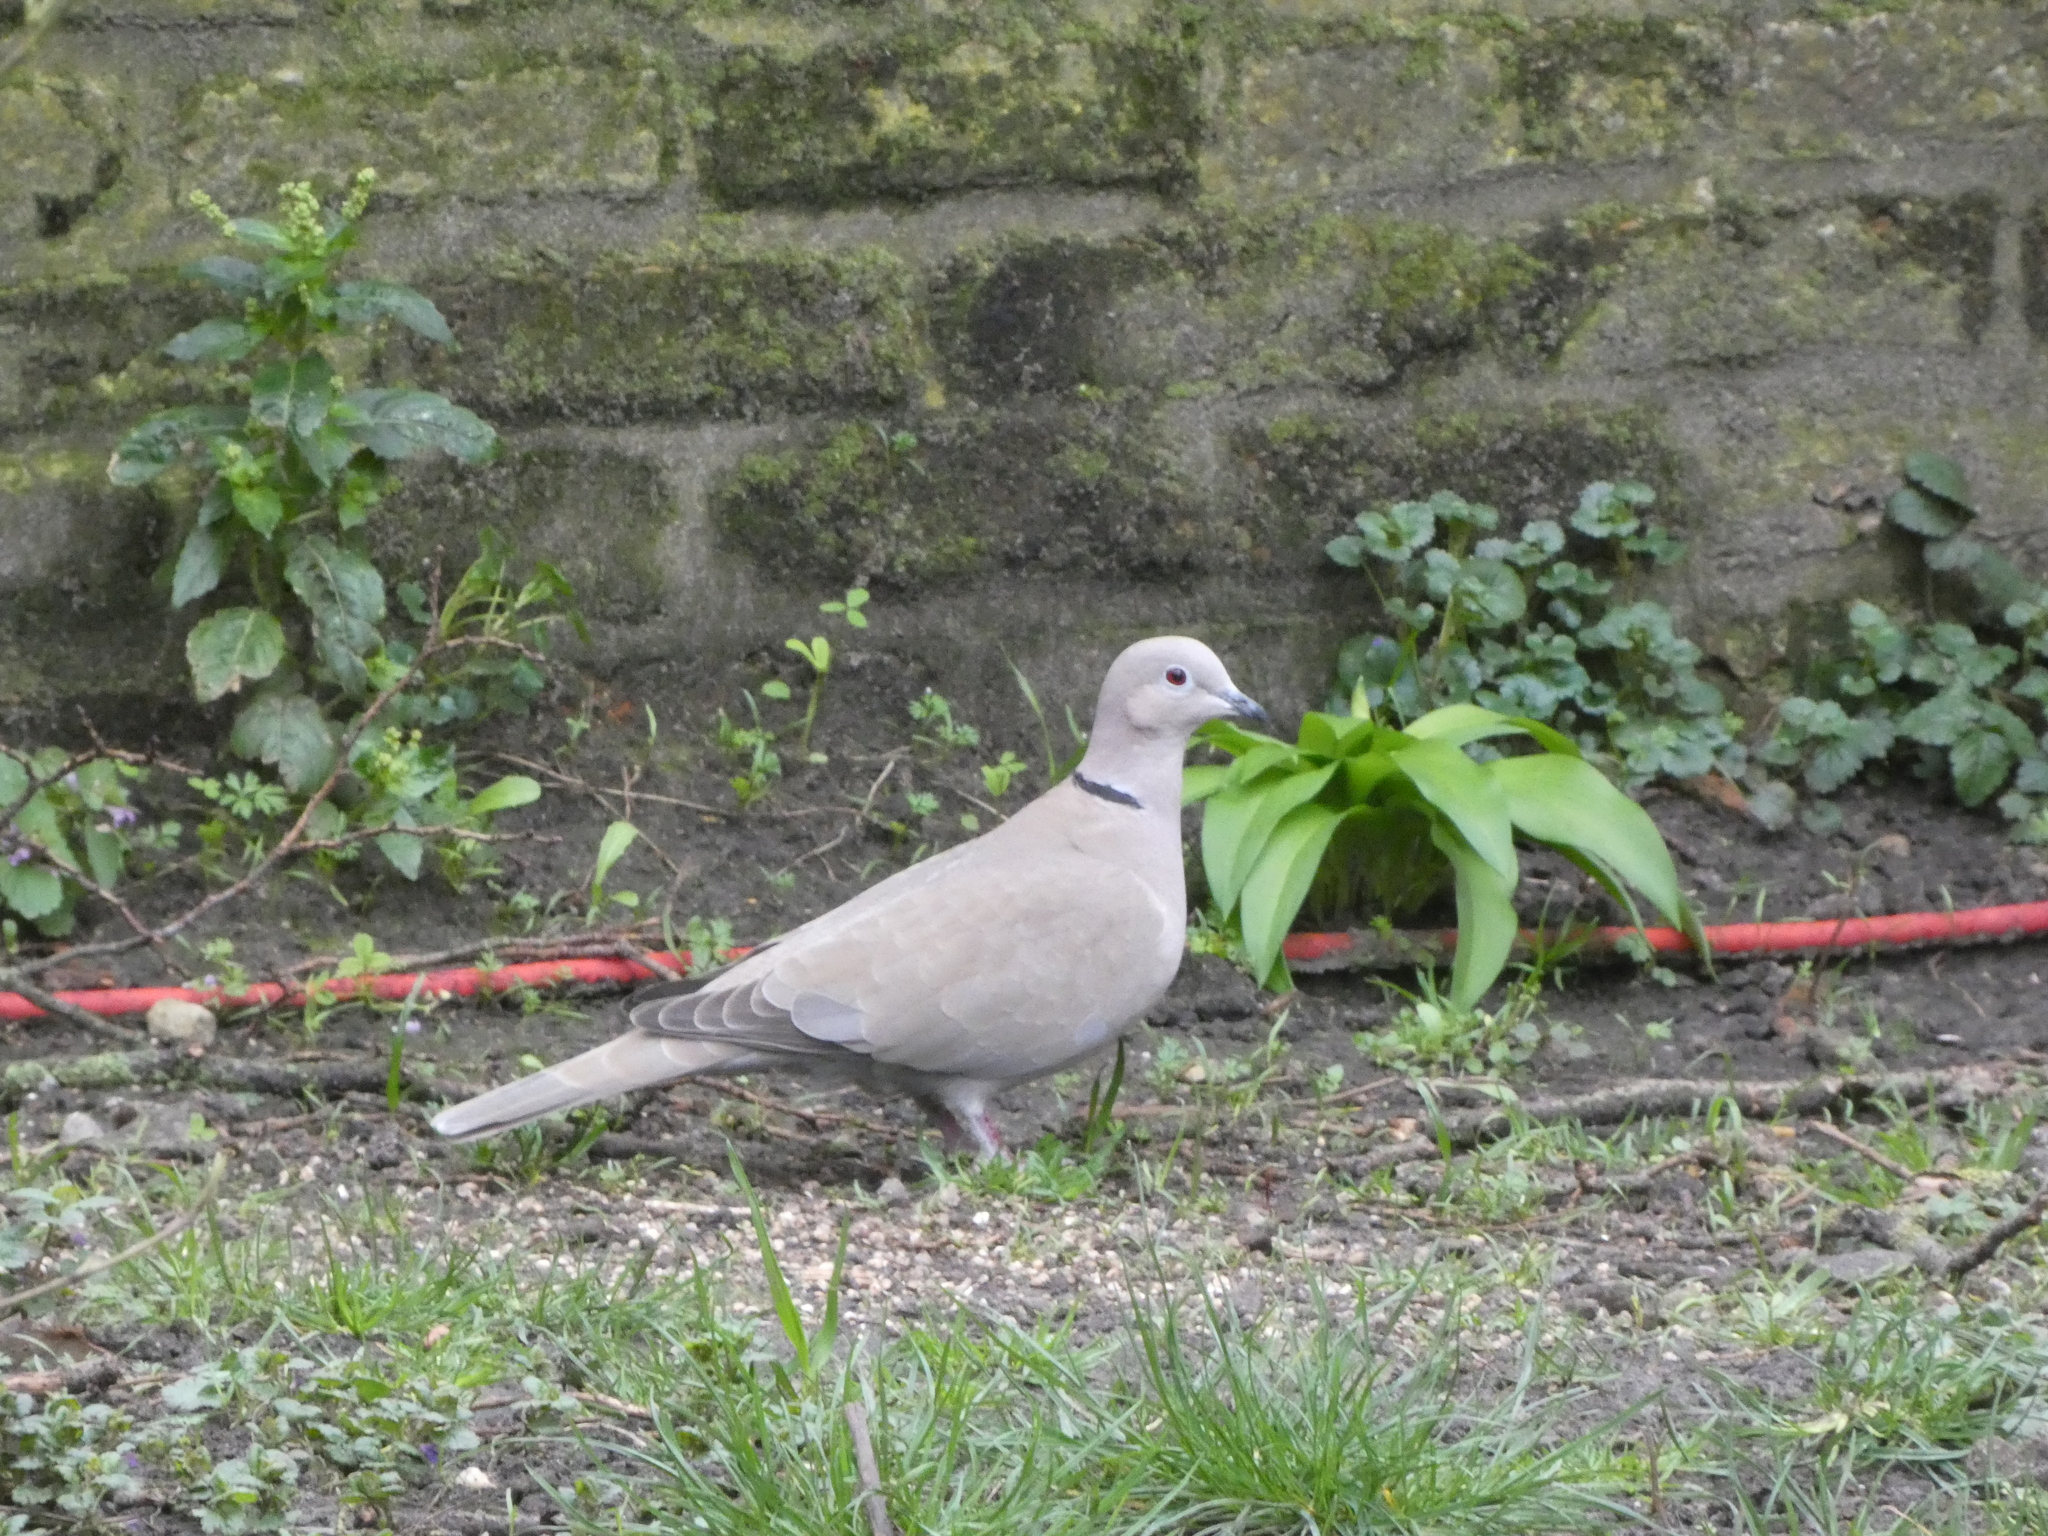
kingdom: Animalia
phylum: Chordata
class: Aves
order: Columbiformes
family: Columbidae
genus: Streptopelia
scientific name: Streptopelia decaocto
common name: Eurasian collared dove
